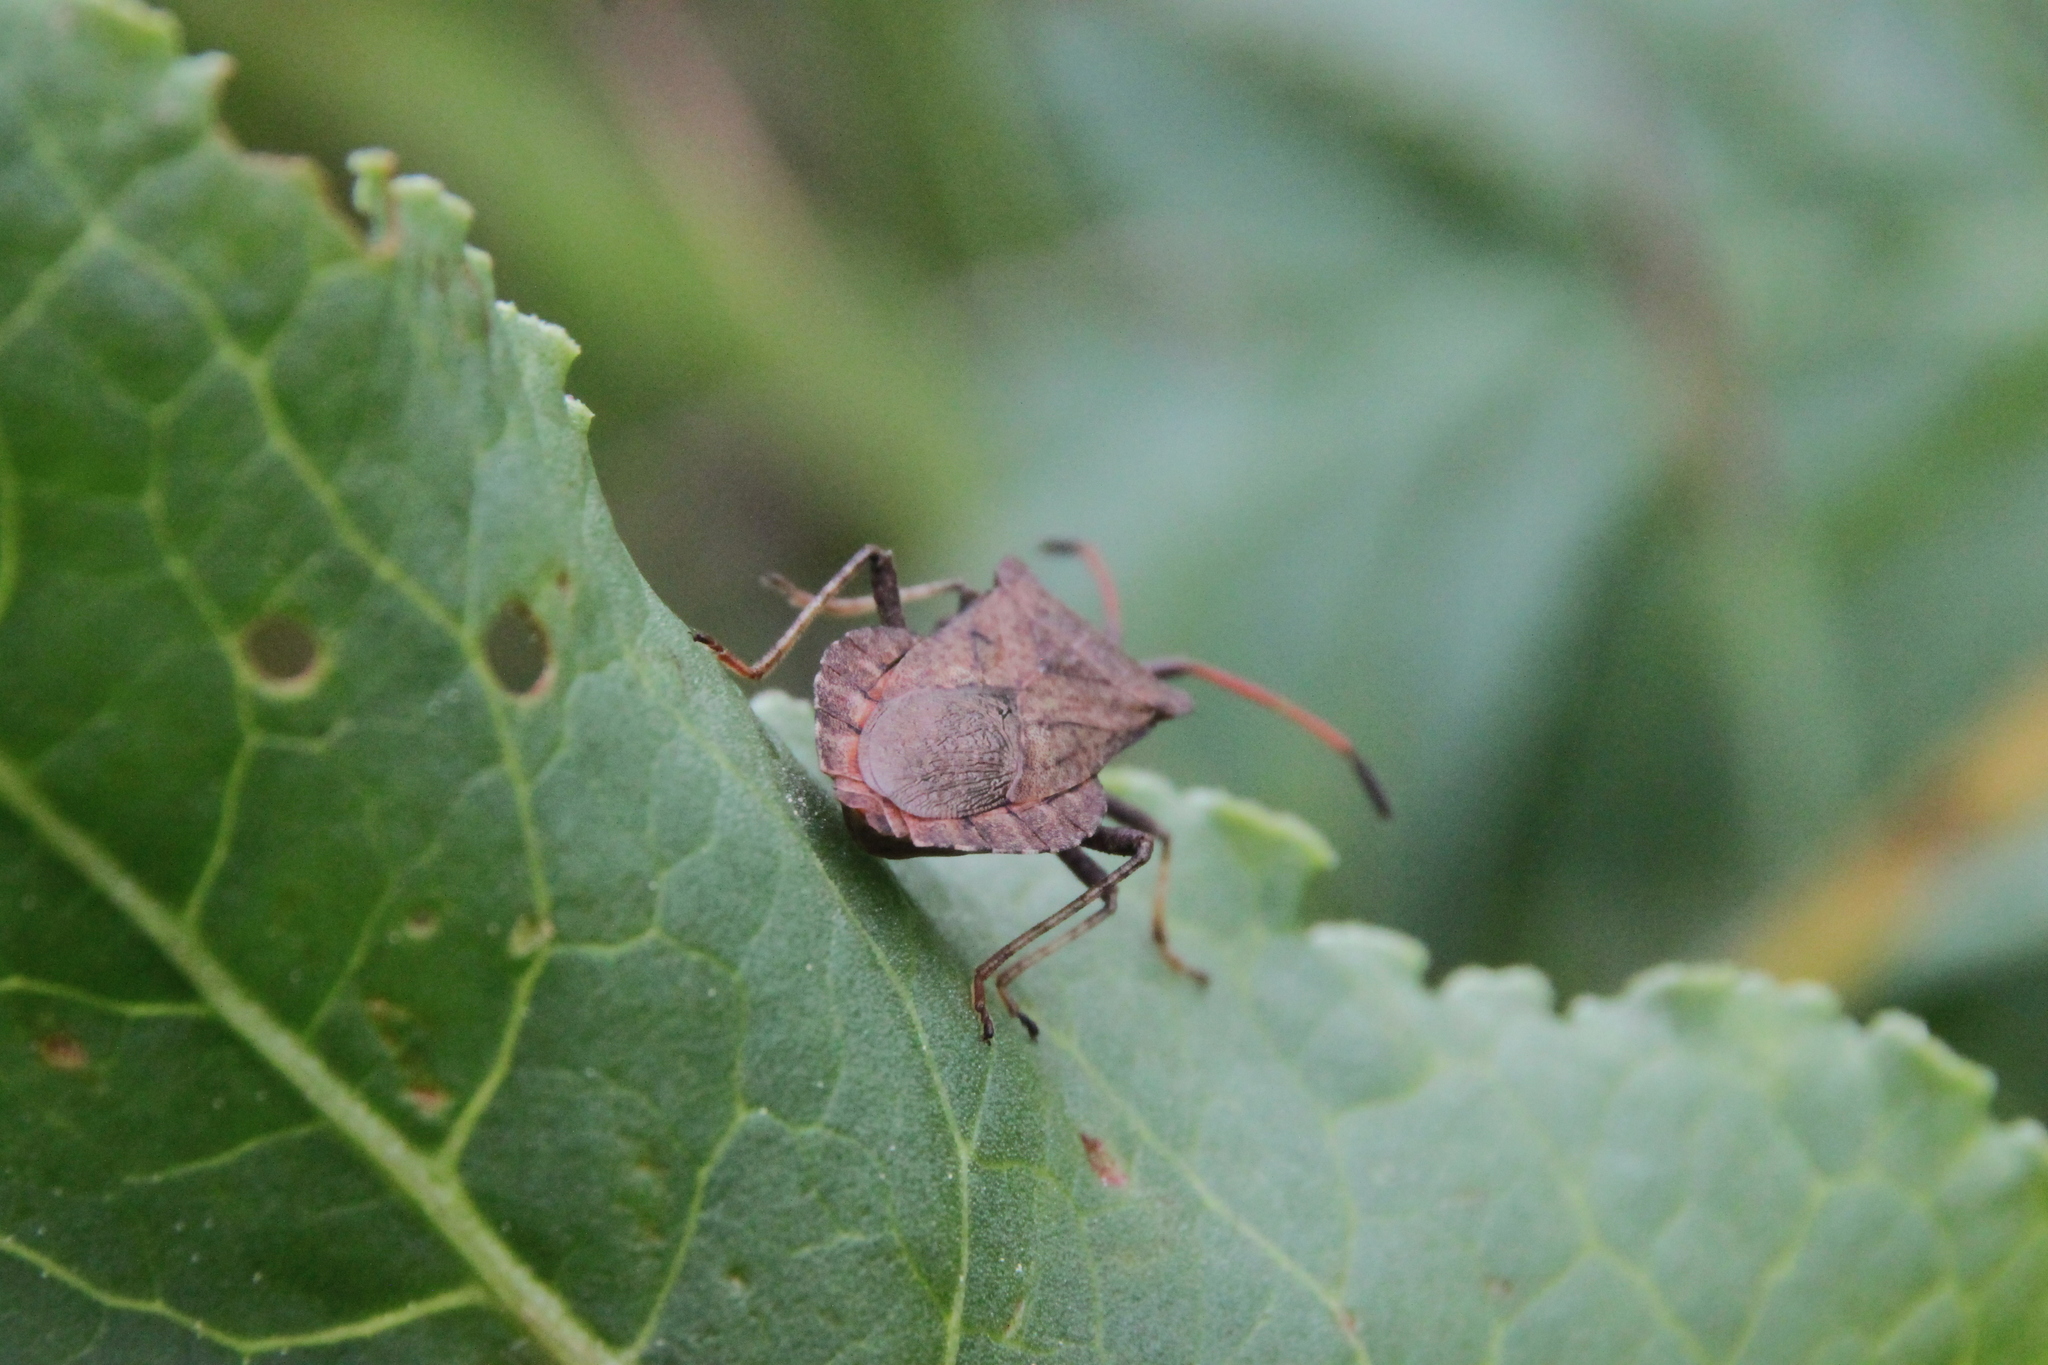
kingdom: Animalia
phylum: Arthropoda
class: Insecta
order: Hemiptera
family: Coreidae
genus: Coreus
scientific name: Coreus marginatus
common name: Dock bug
